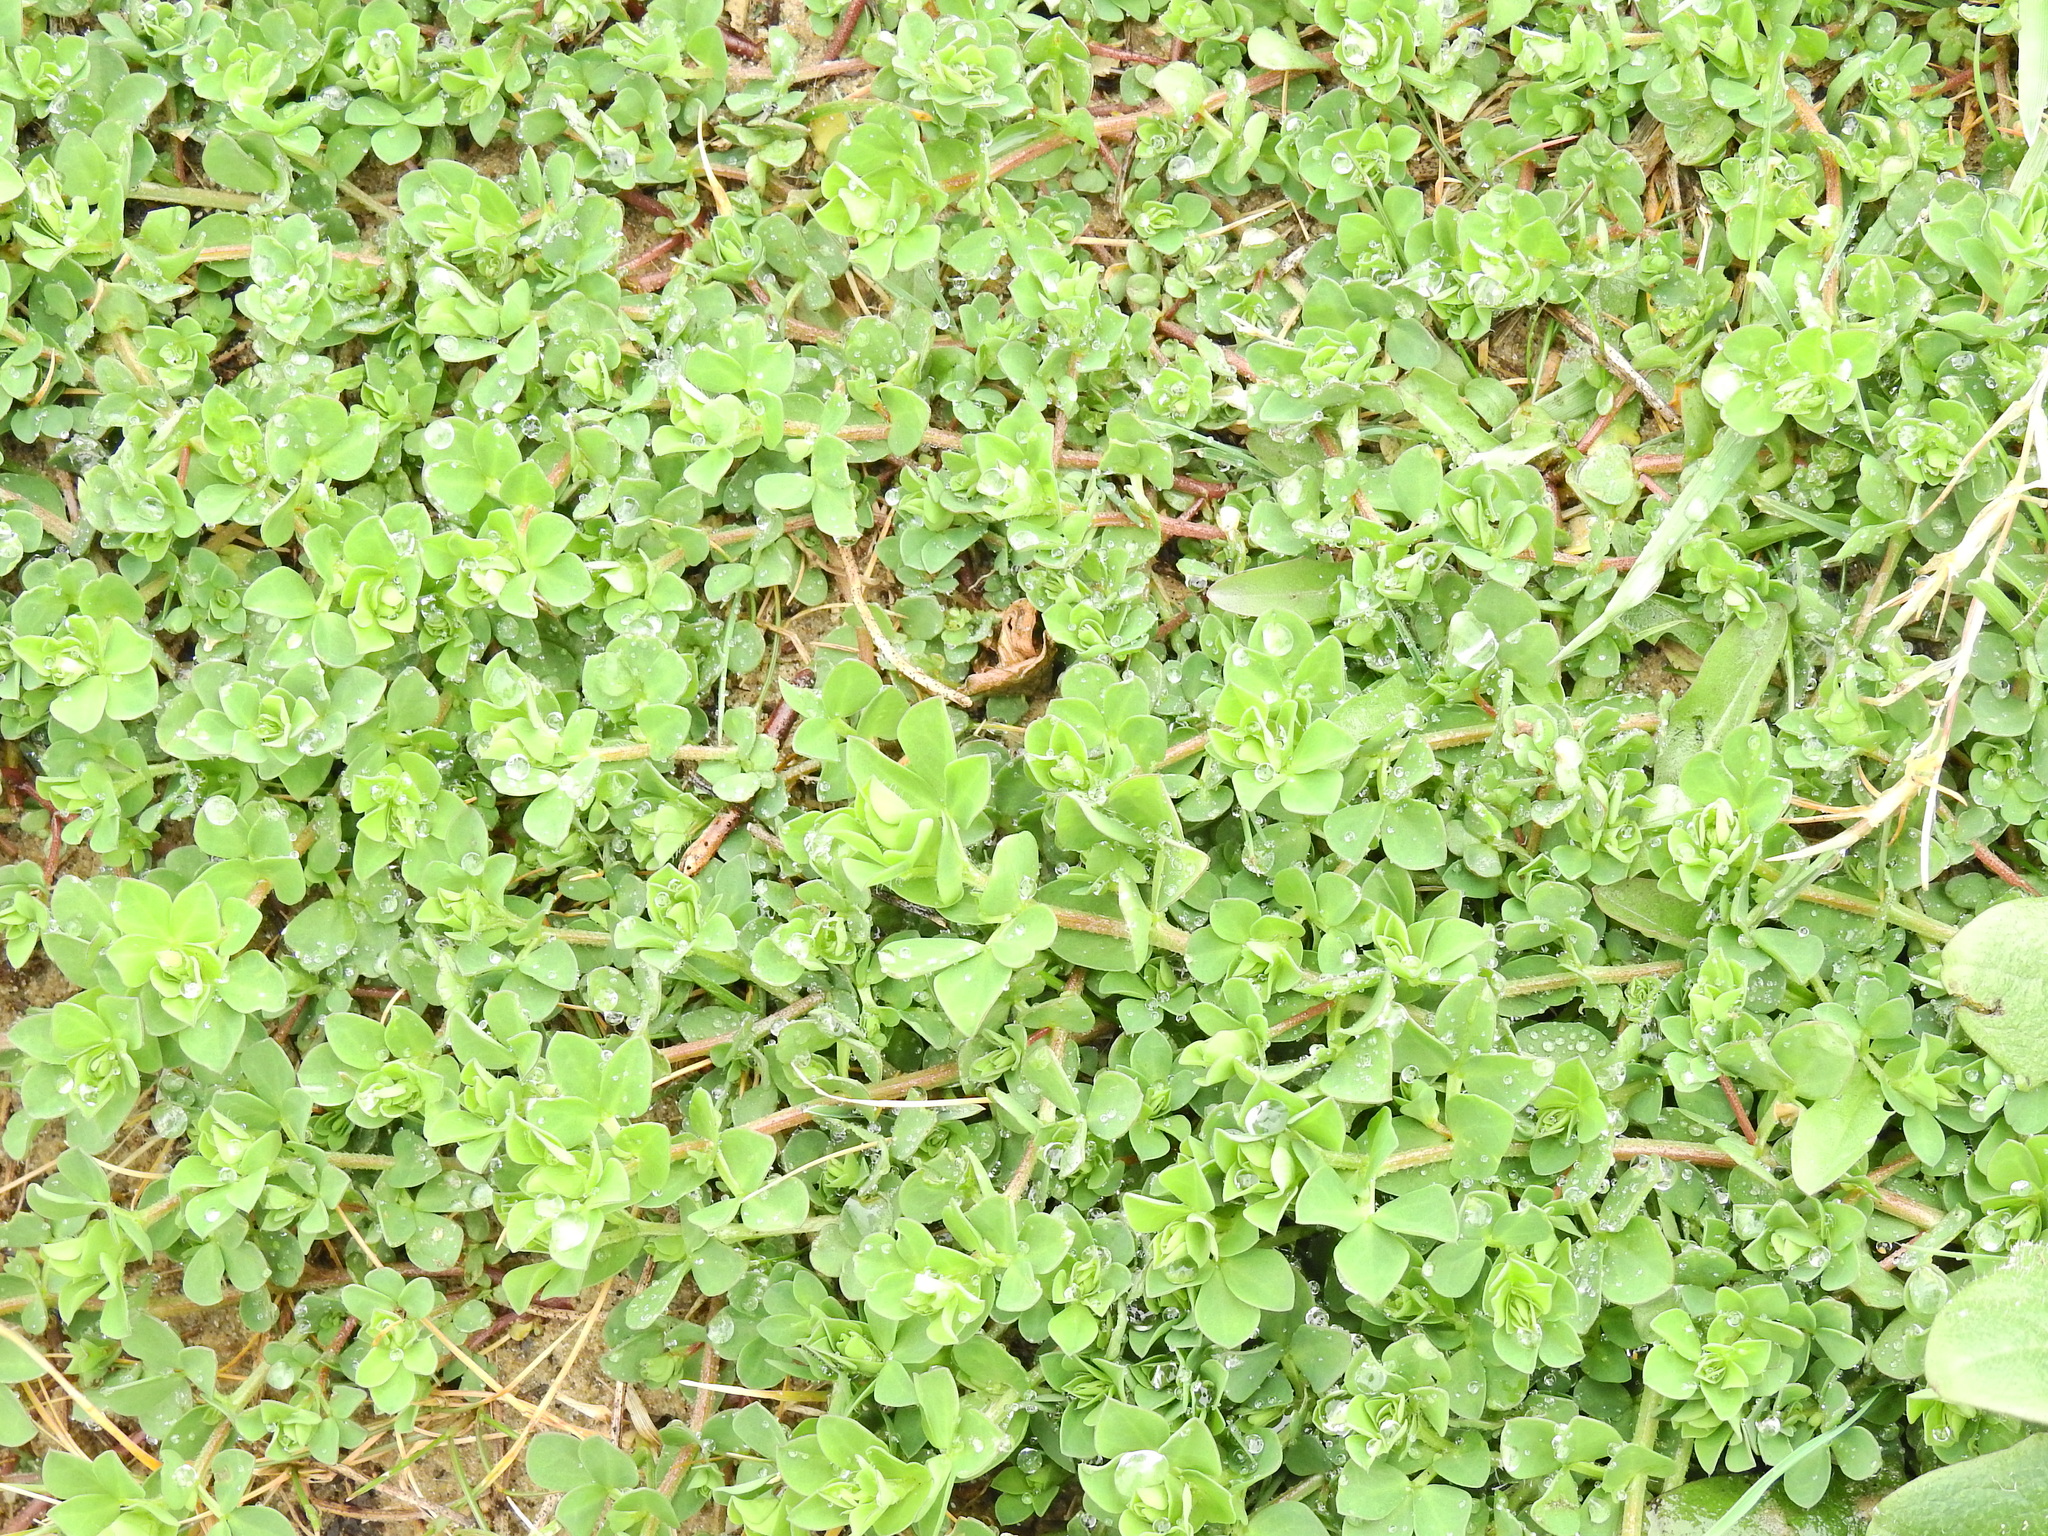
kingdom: Plantae
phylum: Tracheophyta
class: Magnoliopsida
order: Fabales
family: Fabaceae
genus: Lotus
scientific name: Lotus corniculatus
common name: Common bird's-foot-trefoil
